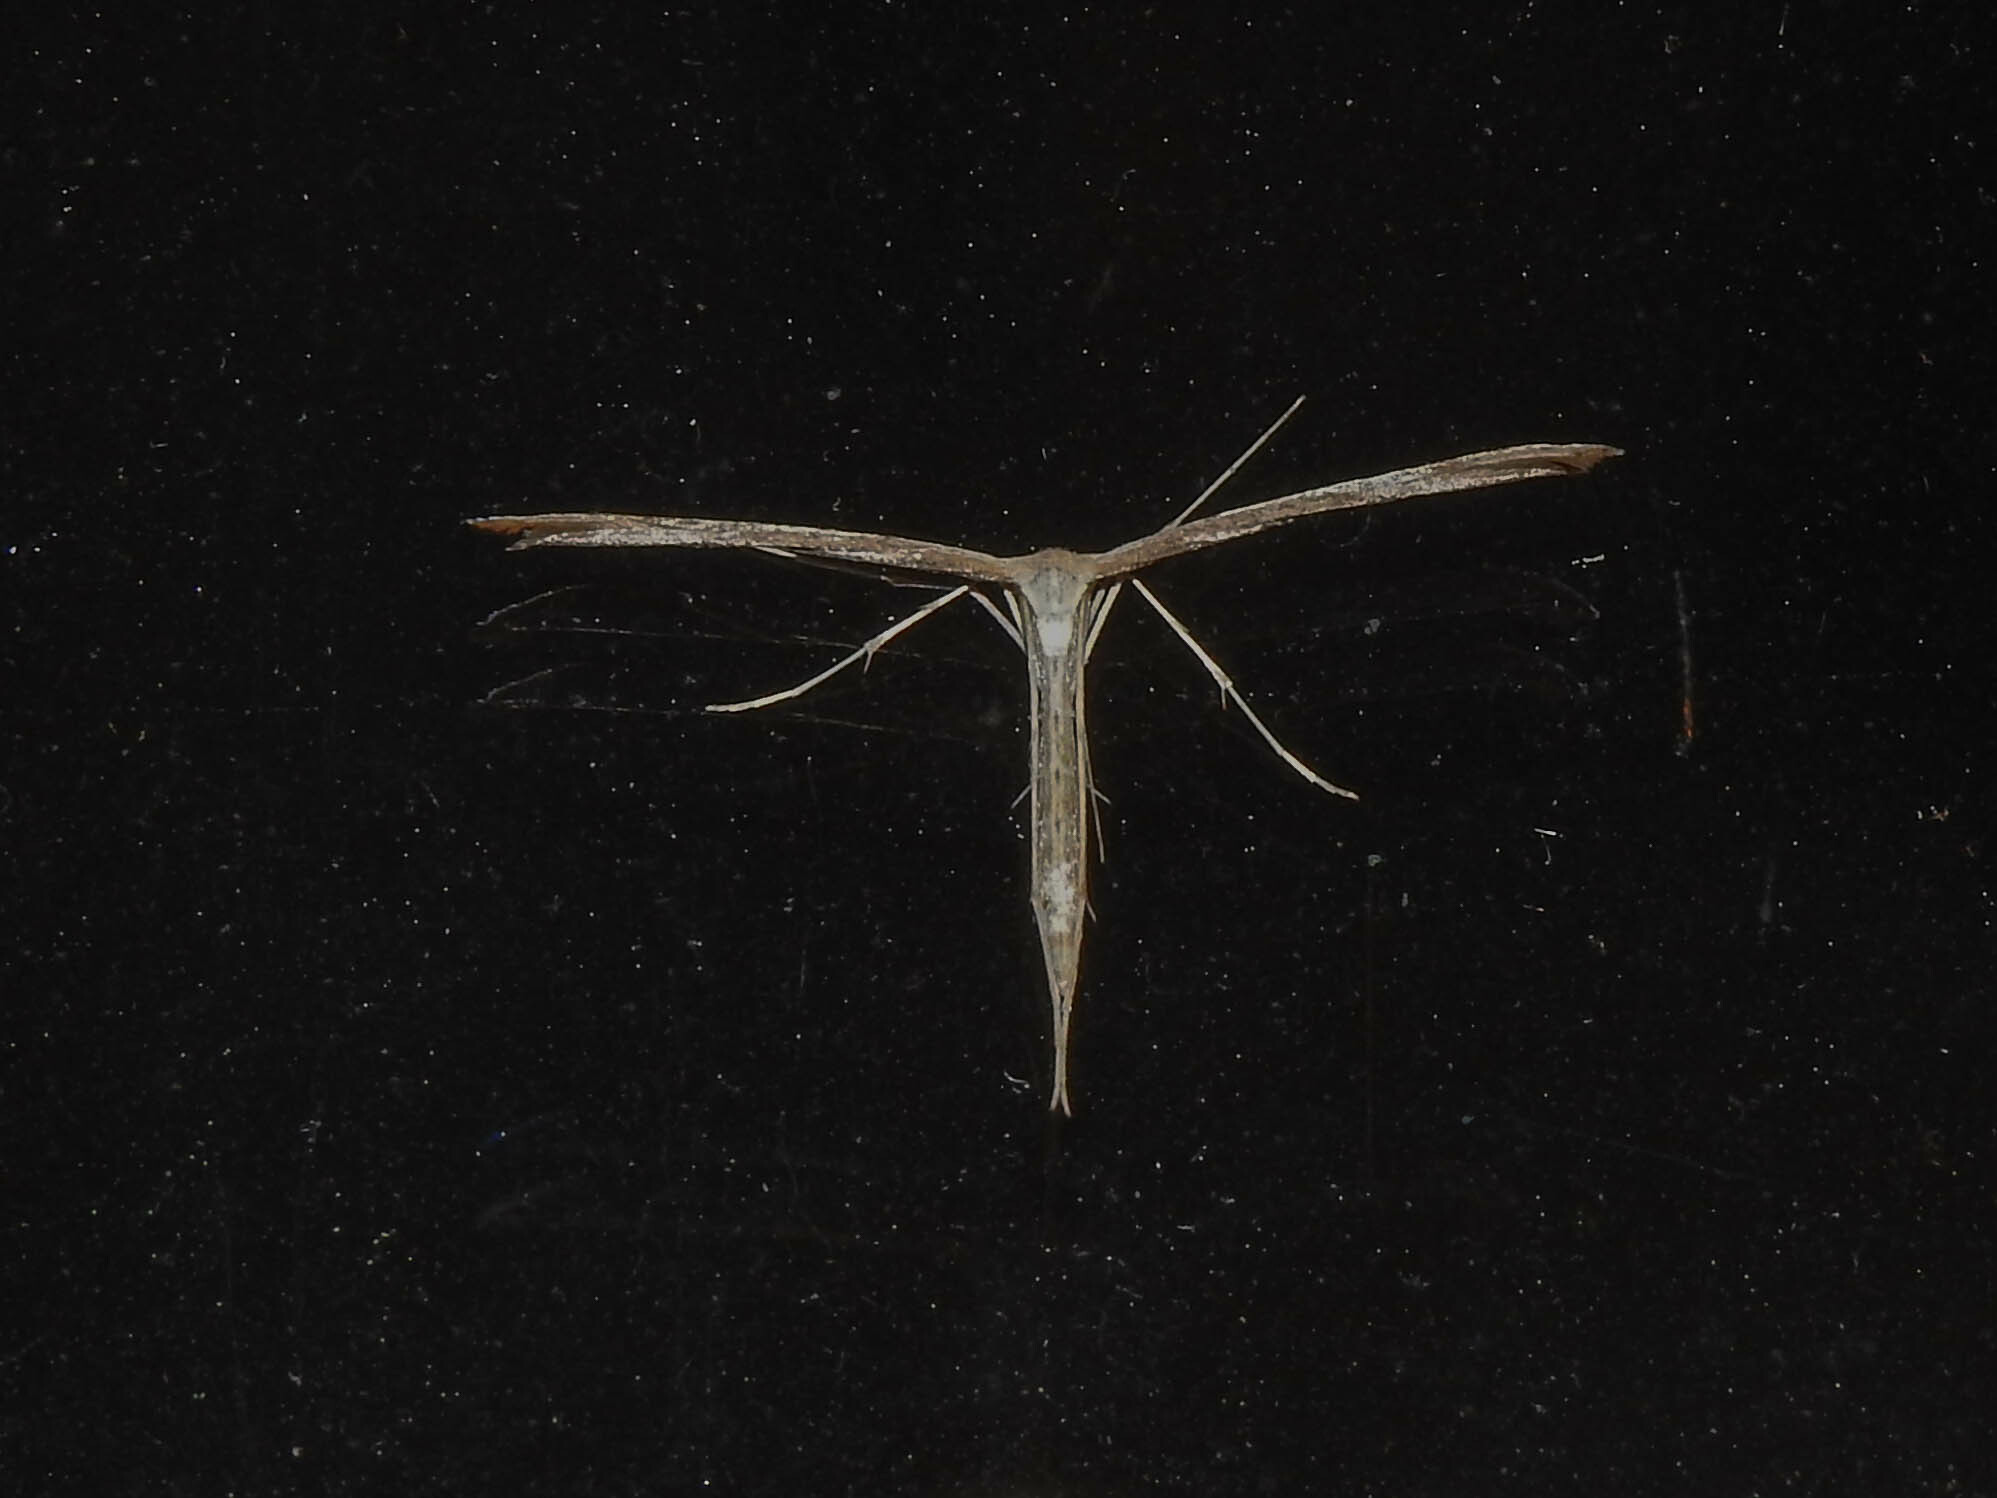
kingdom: Animalia
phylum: Arthropoda
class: Insecta
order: Lepidoptera
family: Pterophoridae
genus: Emmelina
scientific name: Emmelina monodactyla
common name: Common plume
